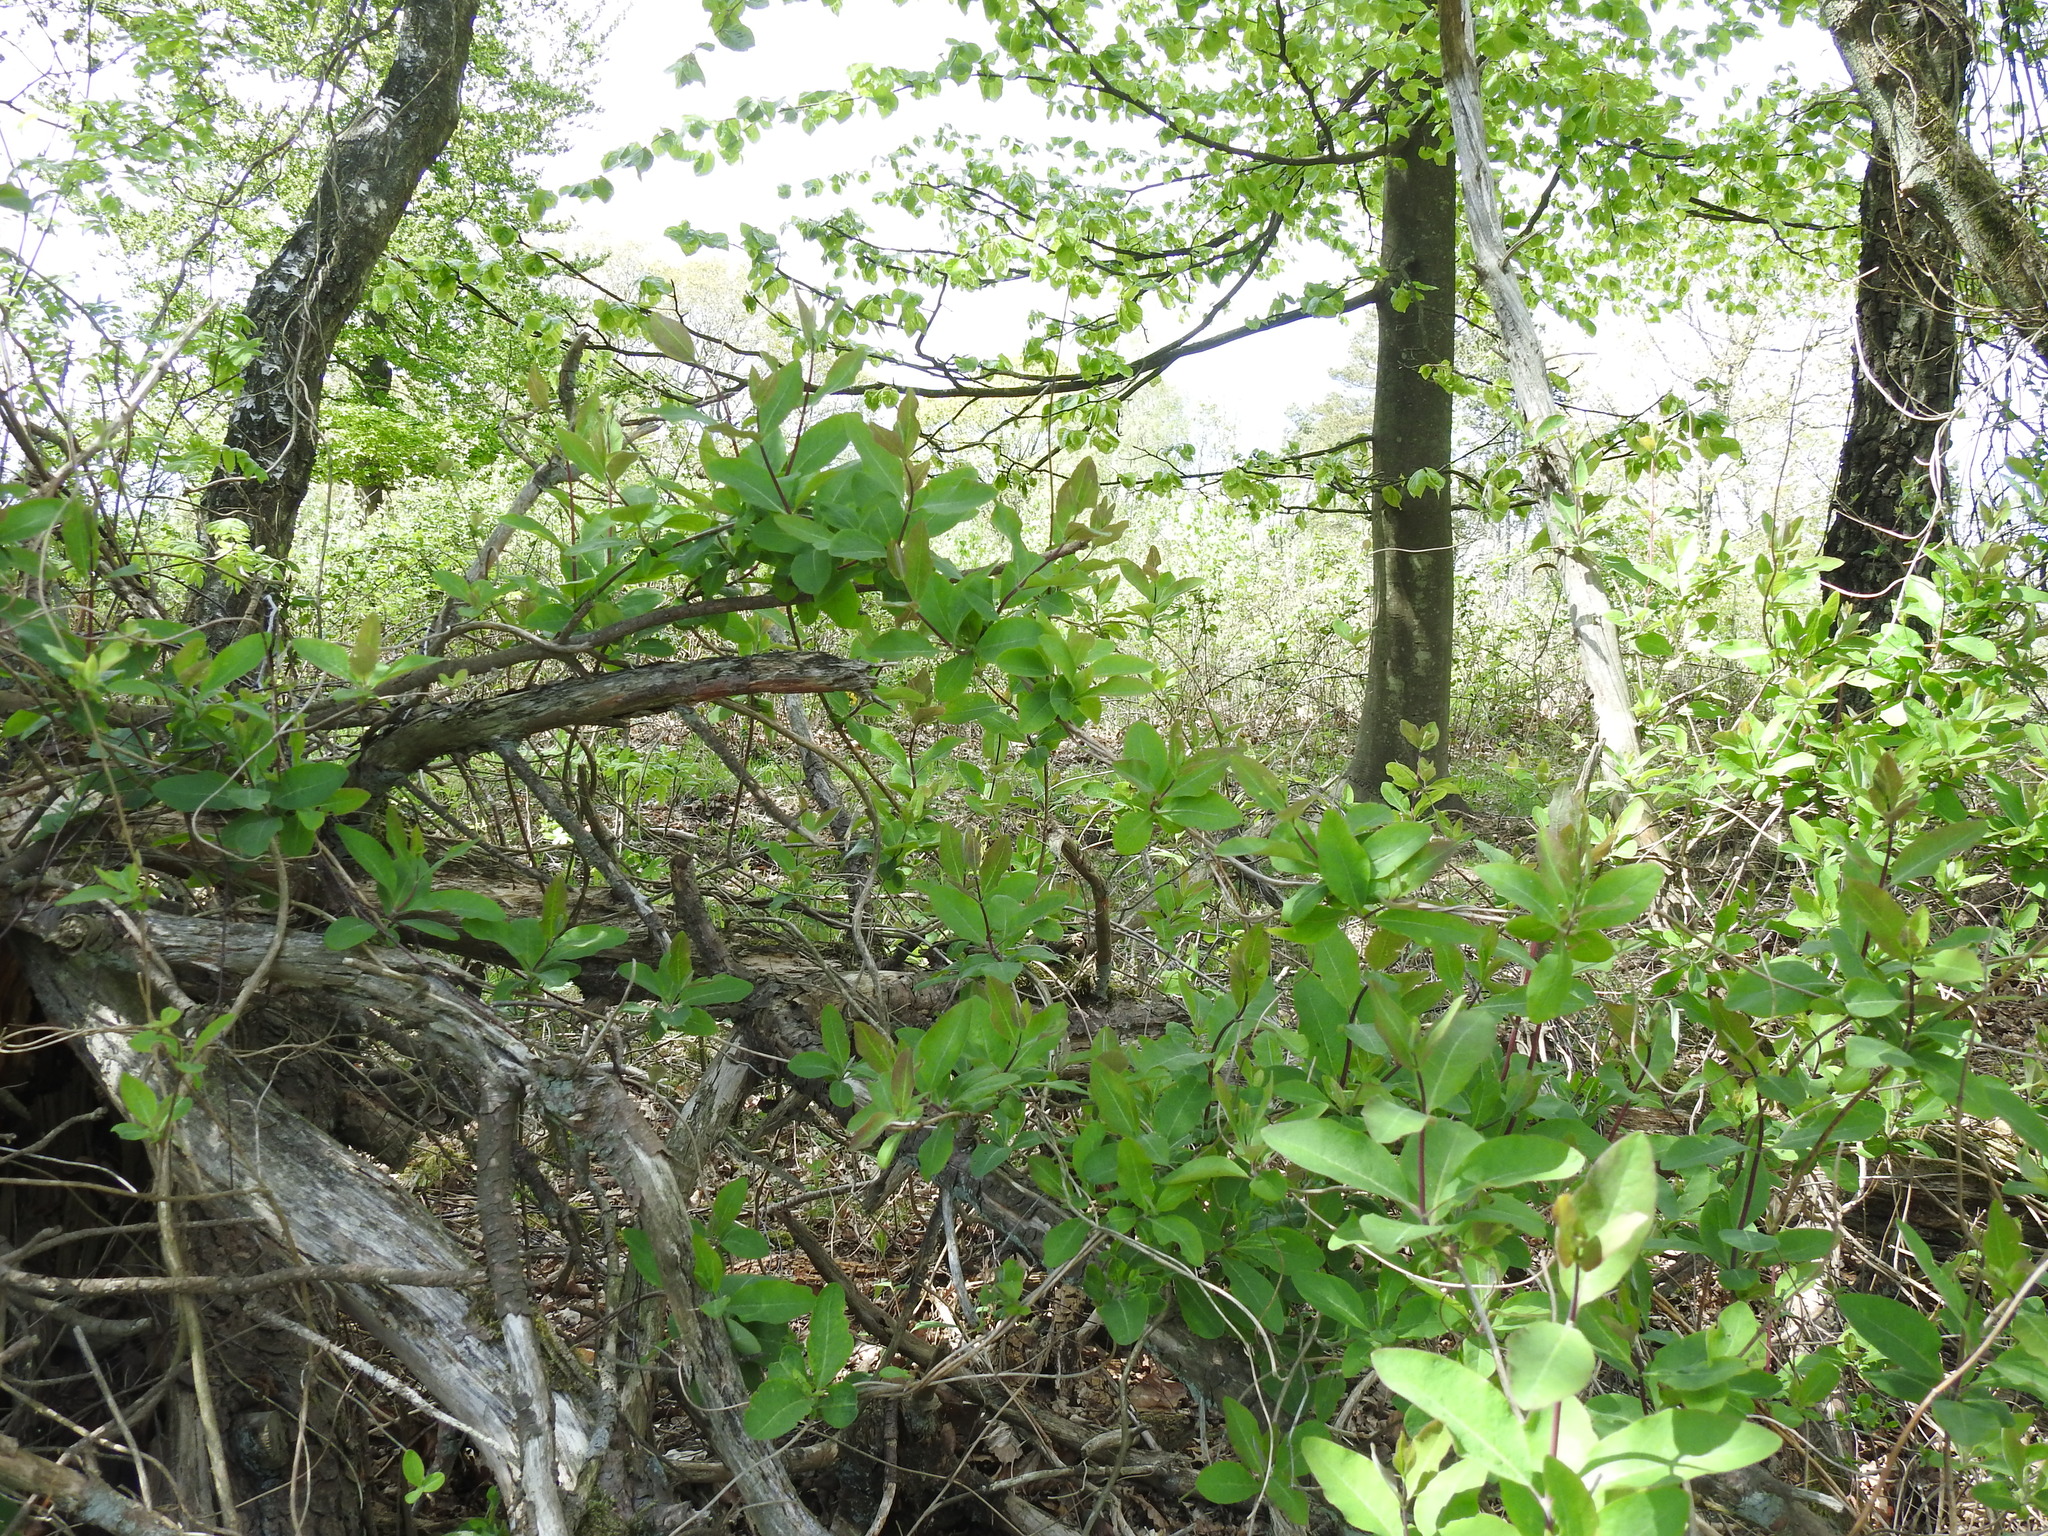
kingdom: Plantae
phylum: Tracheophyta
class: Magnoliopsida
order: Dipsacales
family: Caprifoliaceae
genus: Lonicera
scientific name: Lonicera periclymenum
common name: European honeysuckle
